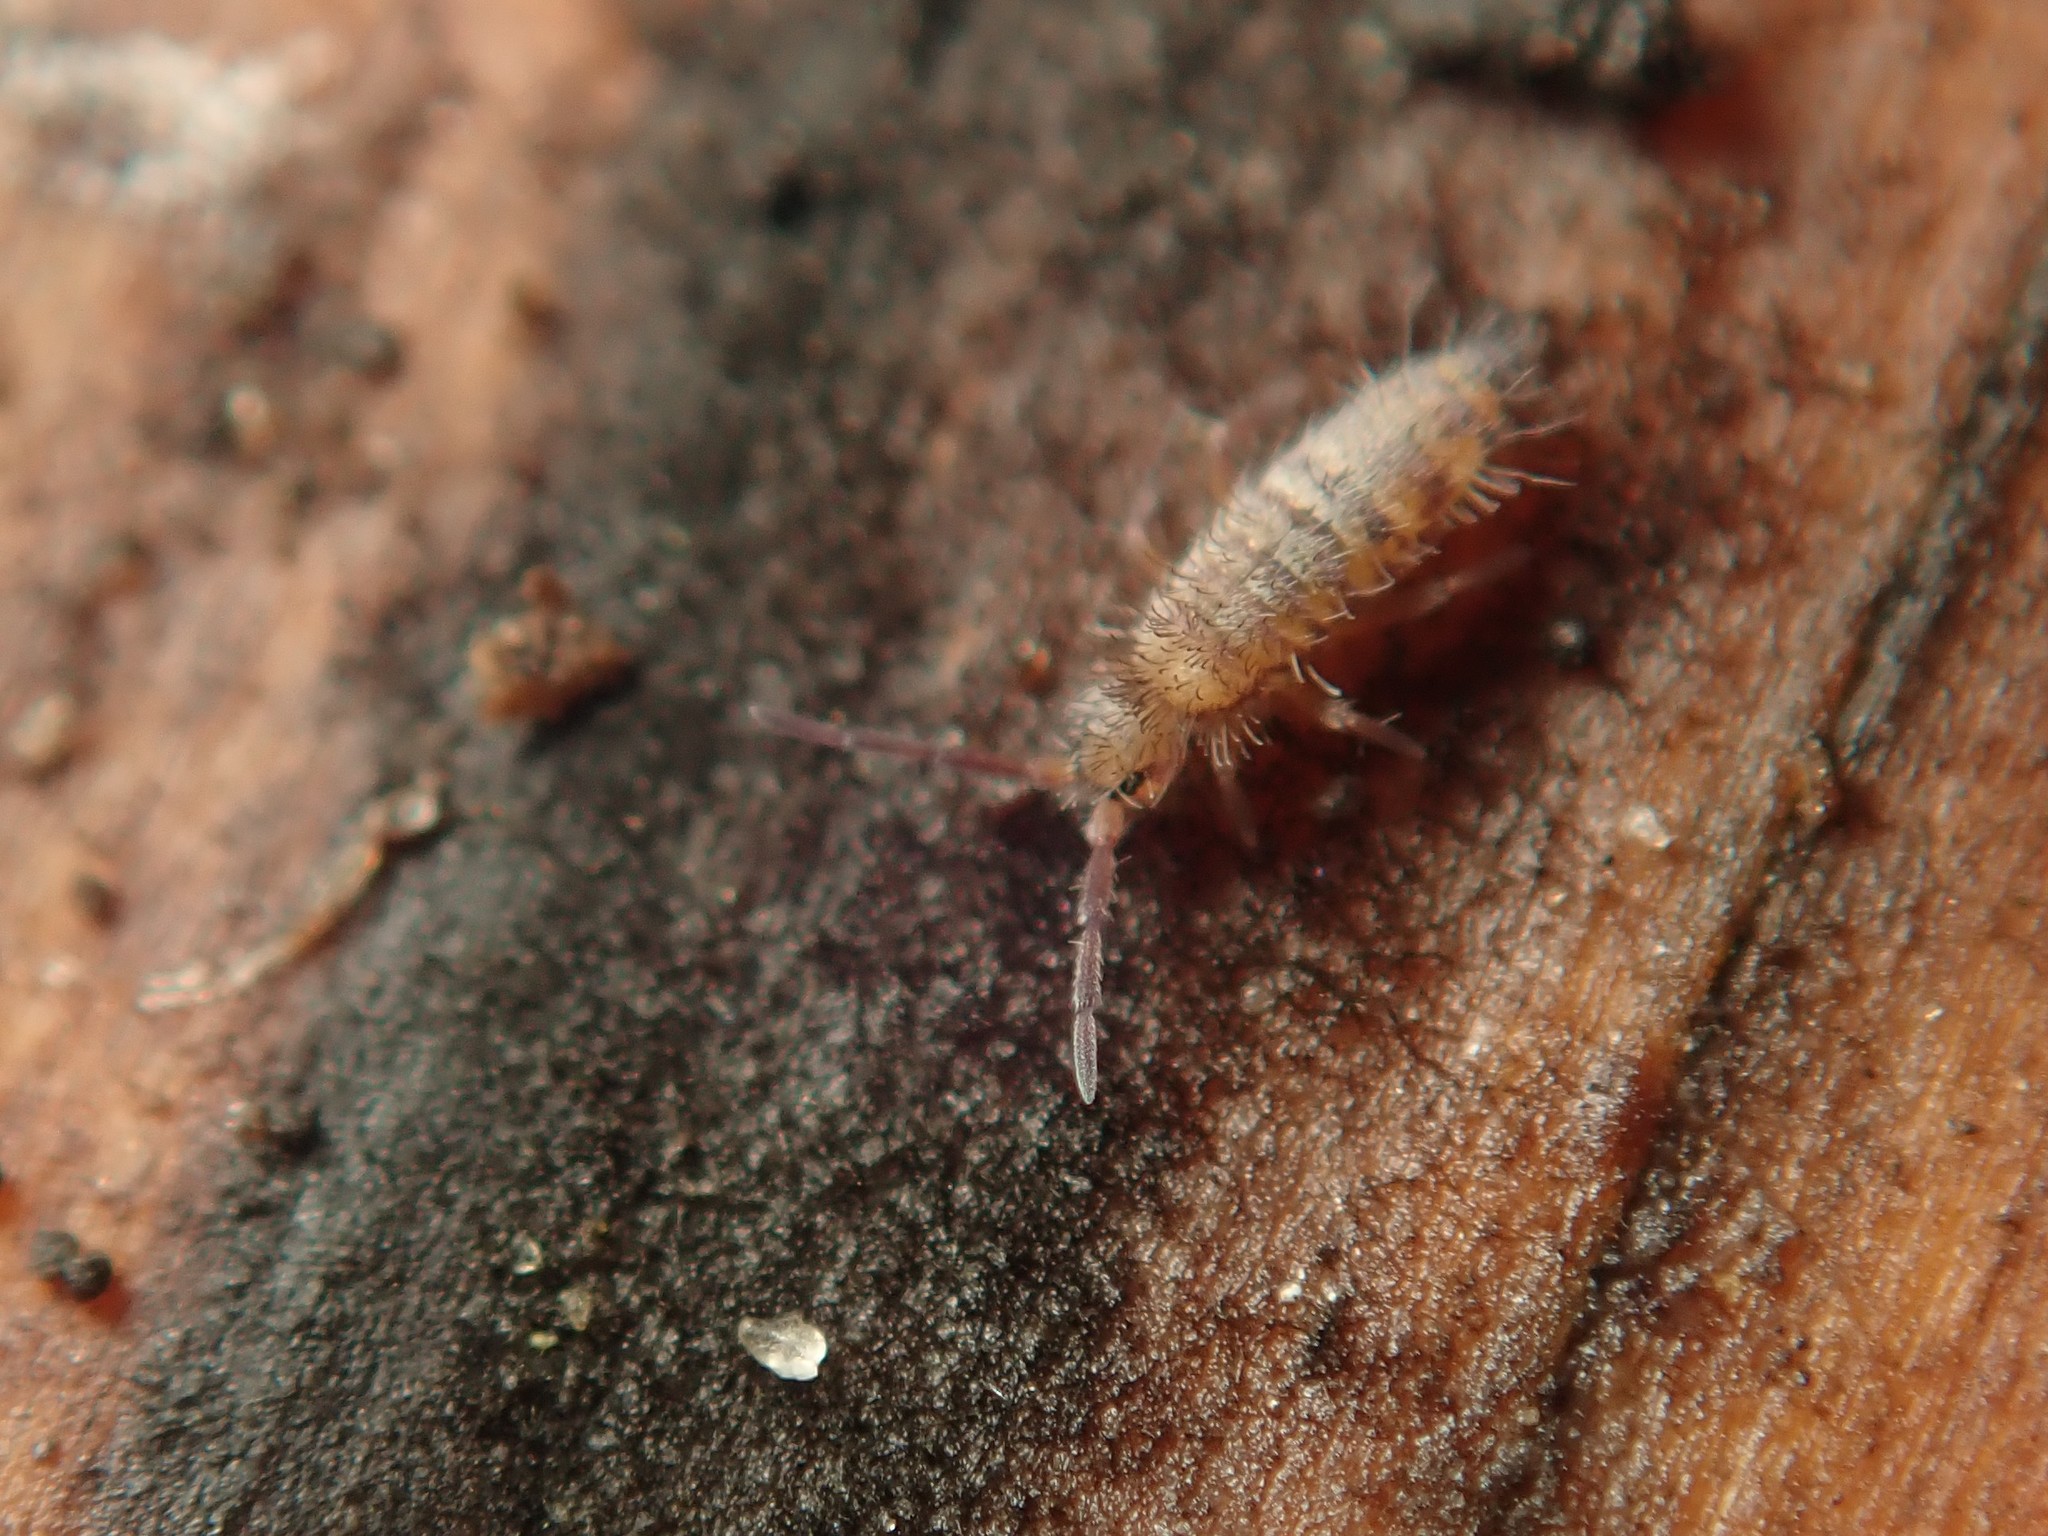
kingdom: Animalia
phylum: Arthropoda
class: Collembola
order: Entomobryomorpha
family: Entomobryidae
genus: Entomobrya
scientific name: Entomobrya multifasciata
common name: Springtail
